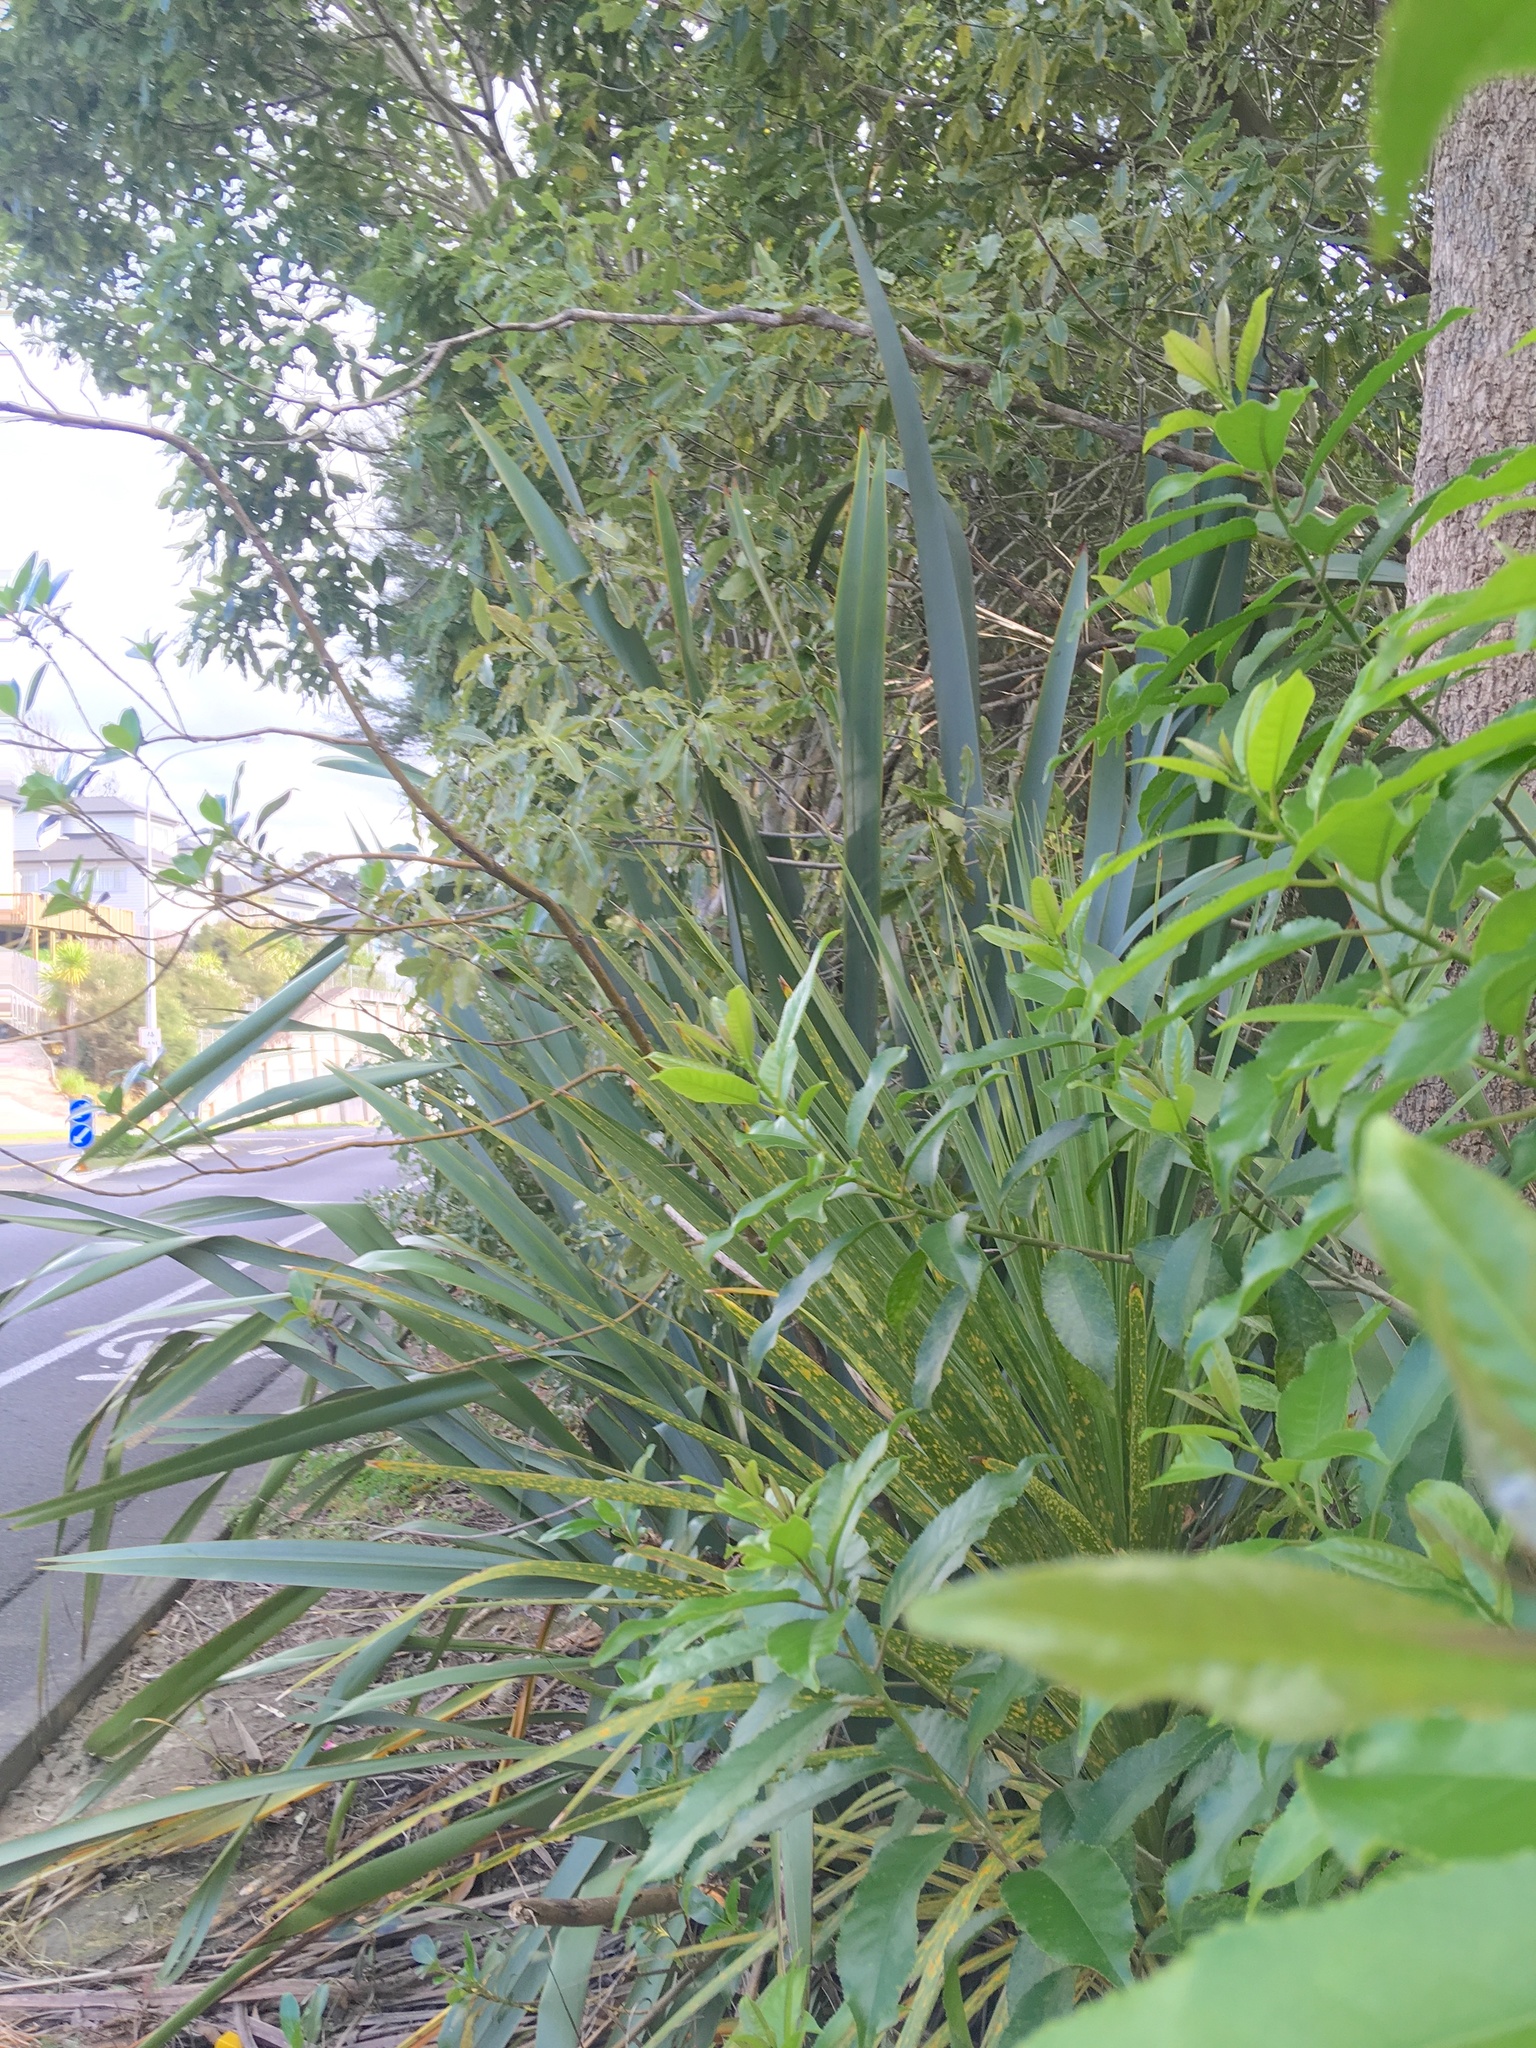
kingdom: Plantae
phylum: Tracheophyta
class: Magnoliopsida
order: Apiales
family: Pittosporaceae
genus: Pittosporum
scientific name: Pittosporum eugenioides
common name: Lemonwood
